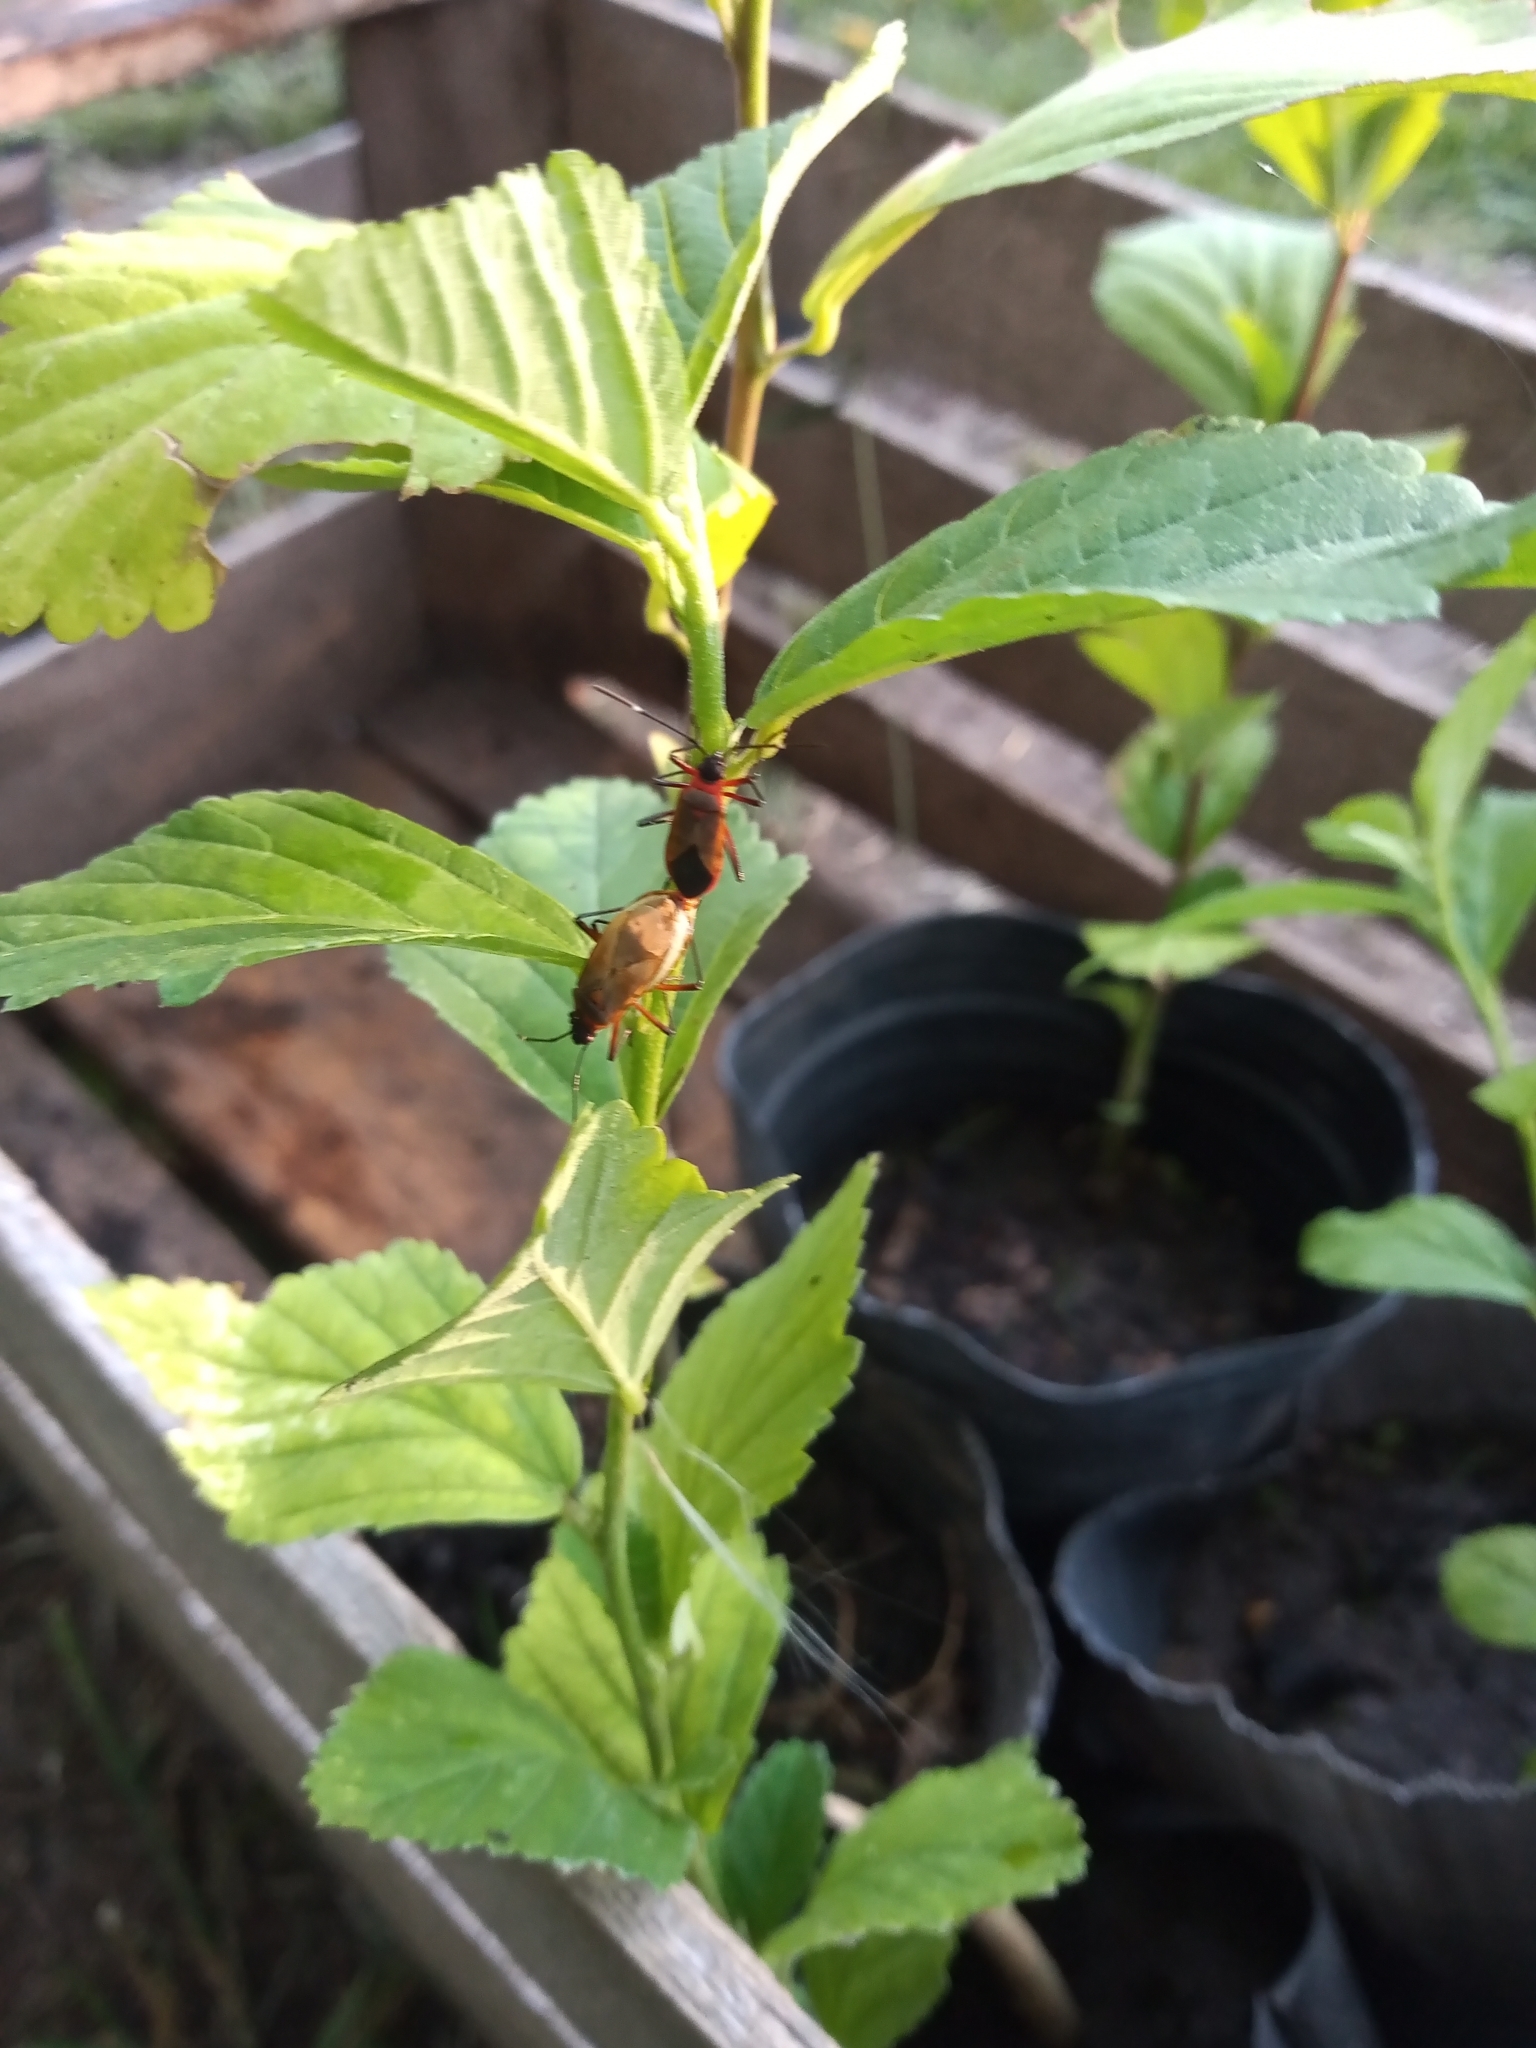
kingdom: Animalia
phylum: Arthropoda
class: Insecta
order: Hemiptera
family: Pyrrhocoridae
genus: Dysdercus
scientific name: Dysdercus
